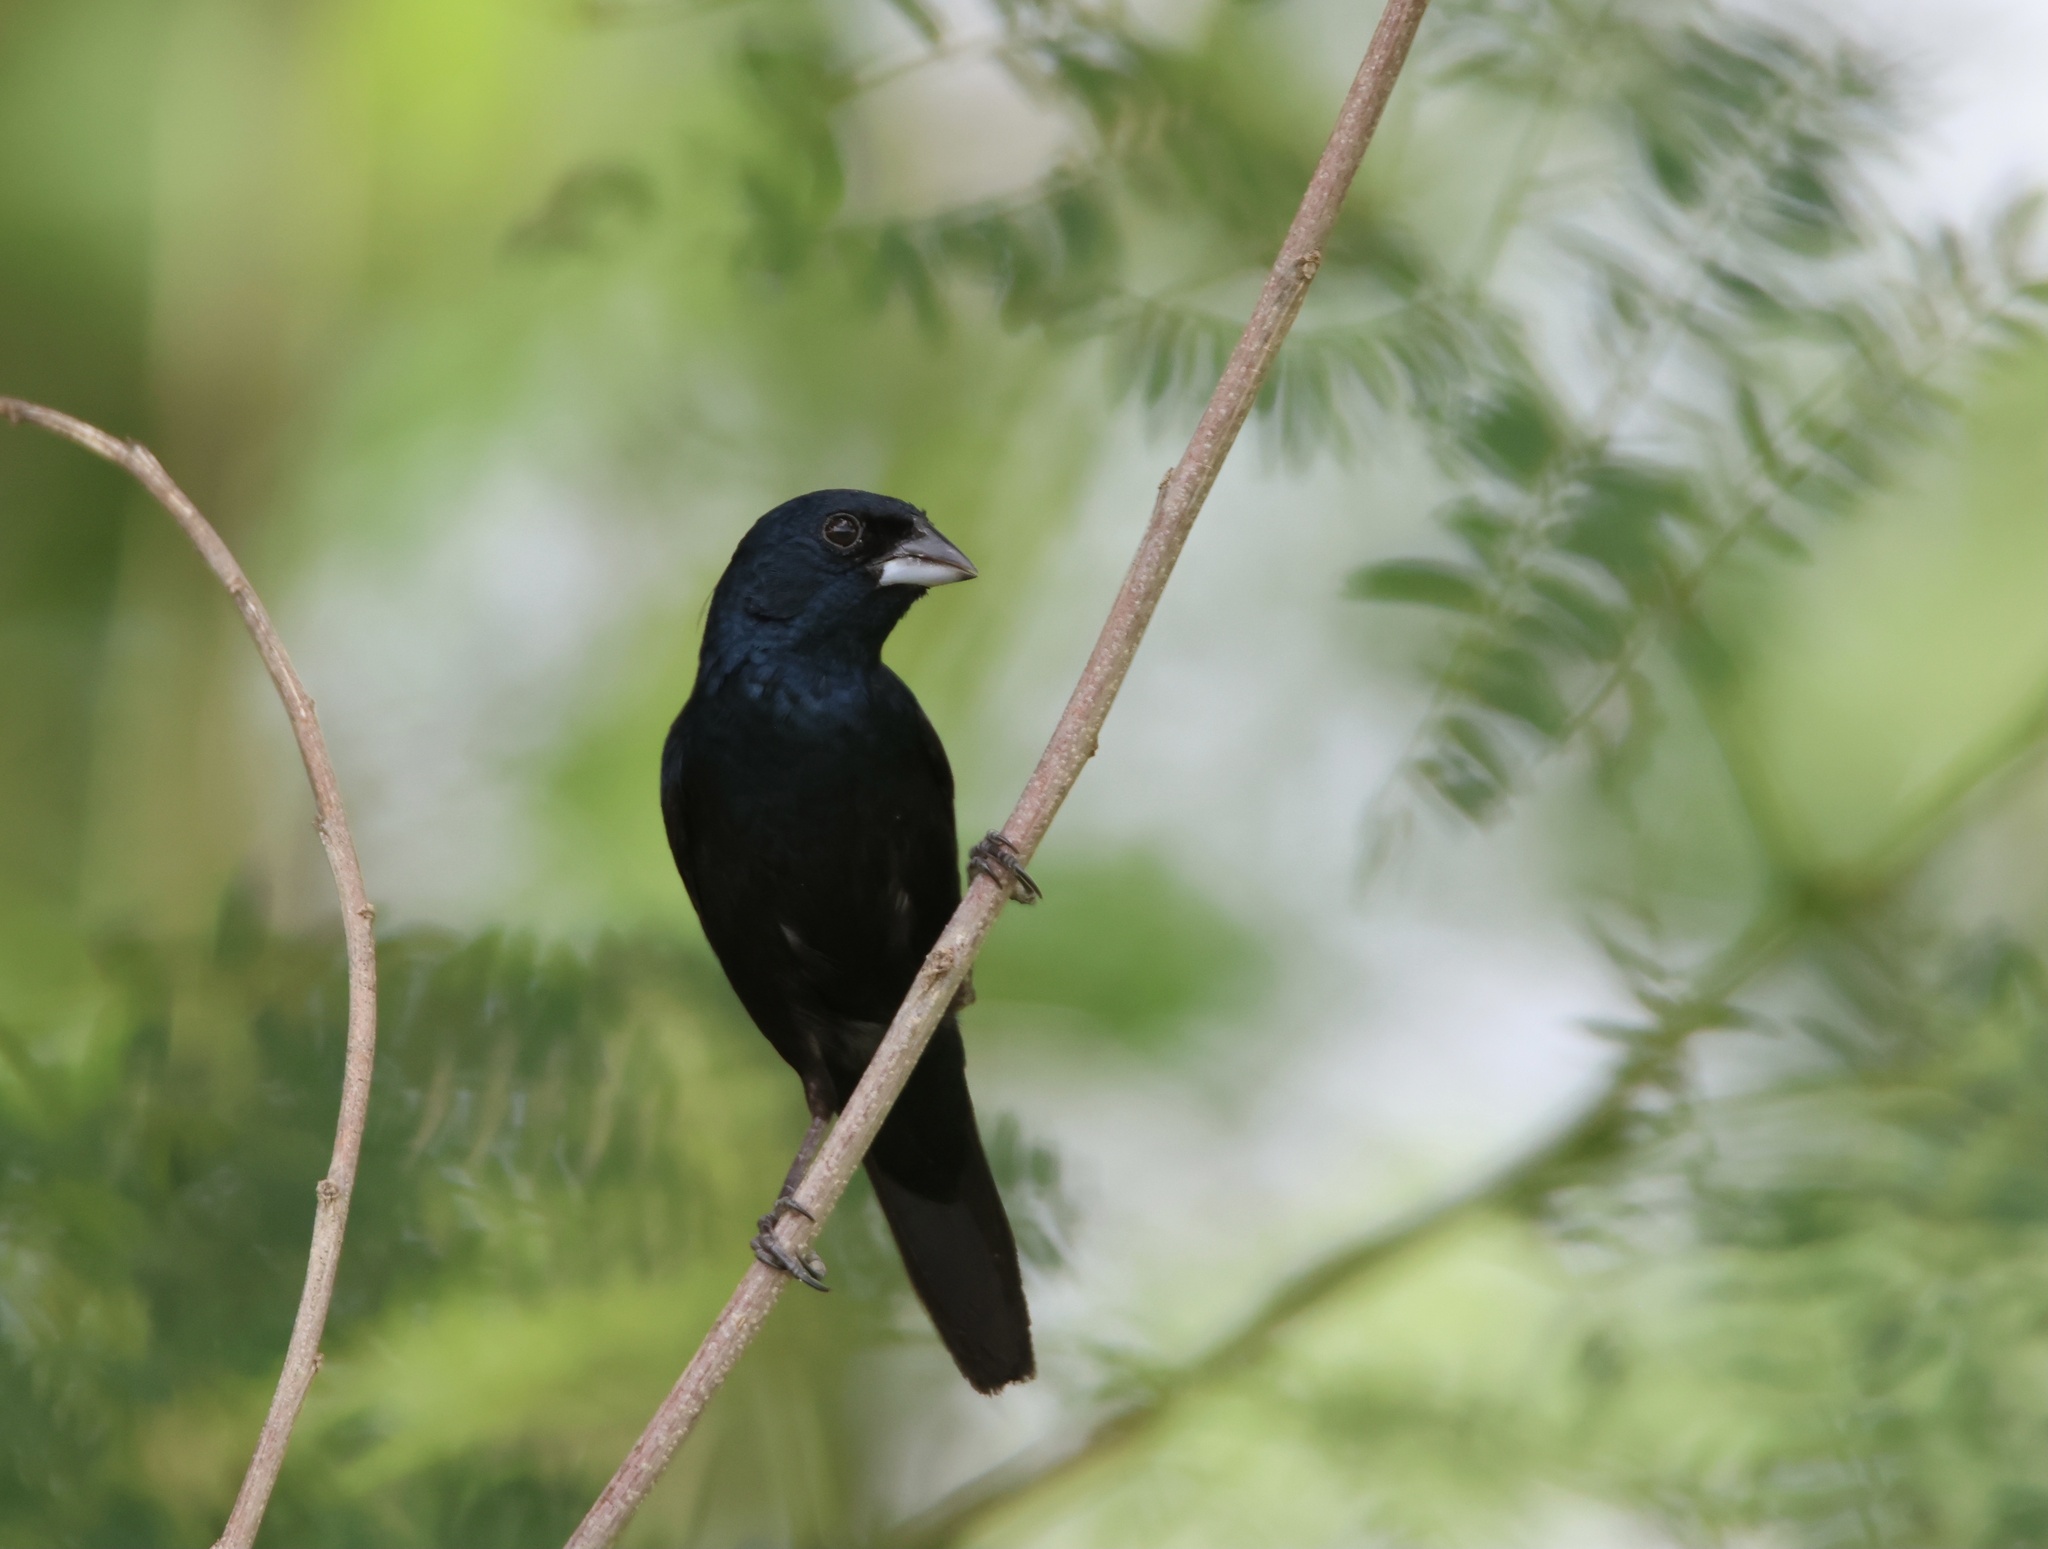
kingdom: Animalia
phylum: Chordata
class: Aves
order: Passeriformes
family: Thraupidae
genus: Volatinia
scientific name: Volatinia jacarina
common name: Blue-black grassquit
